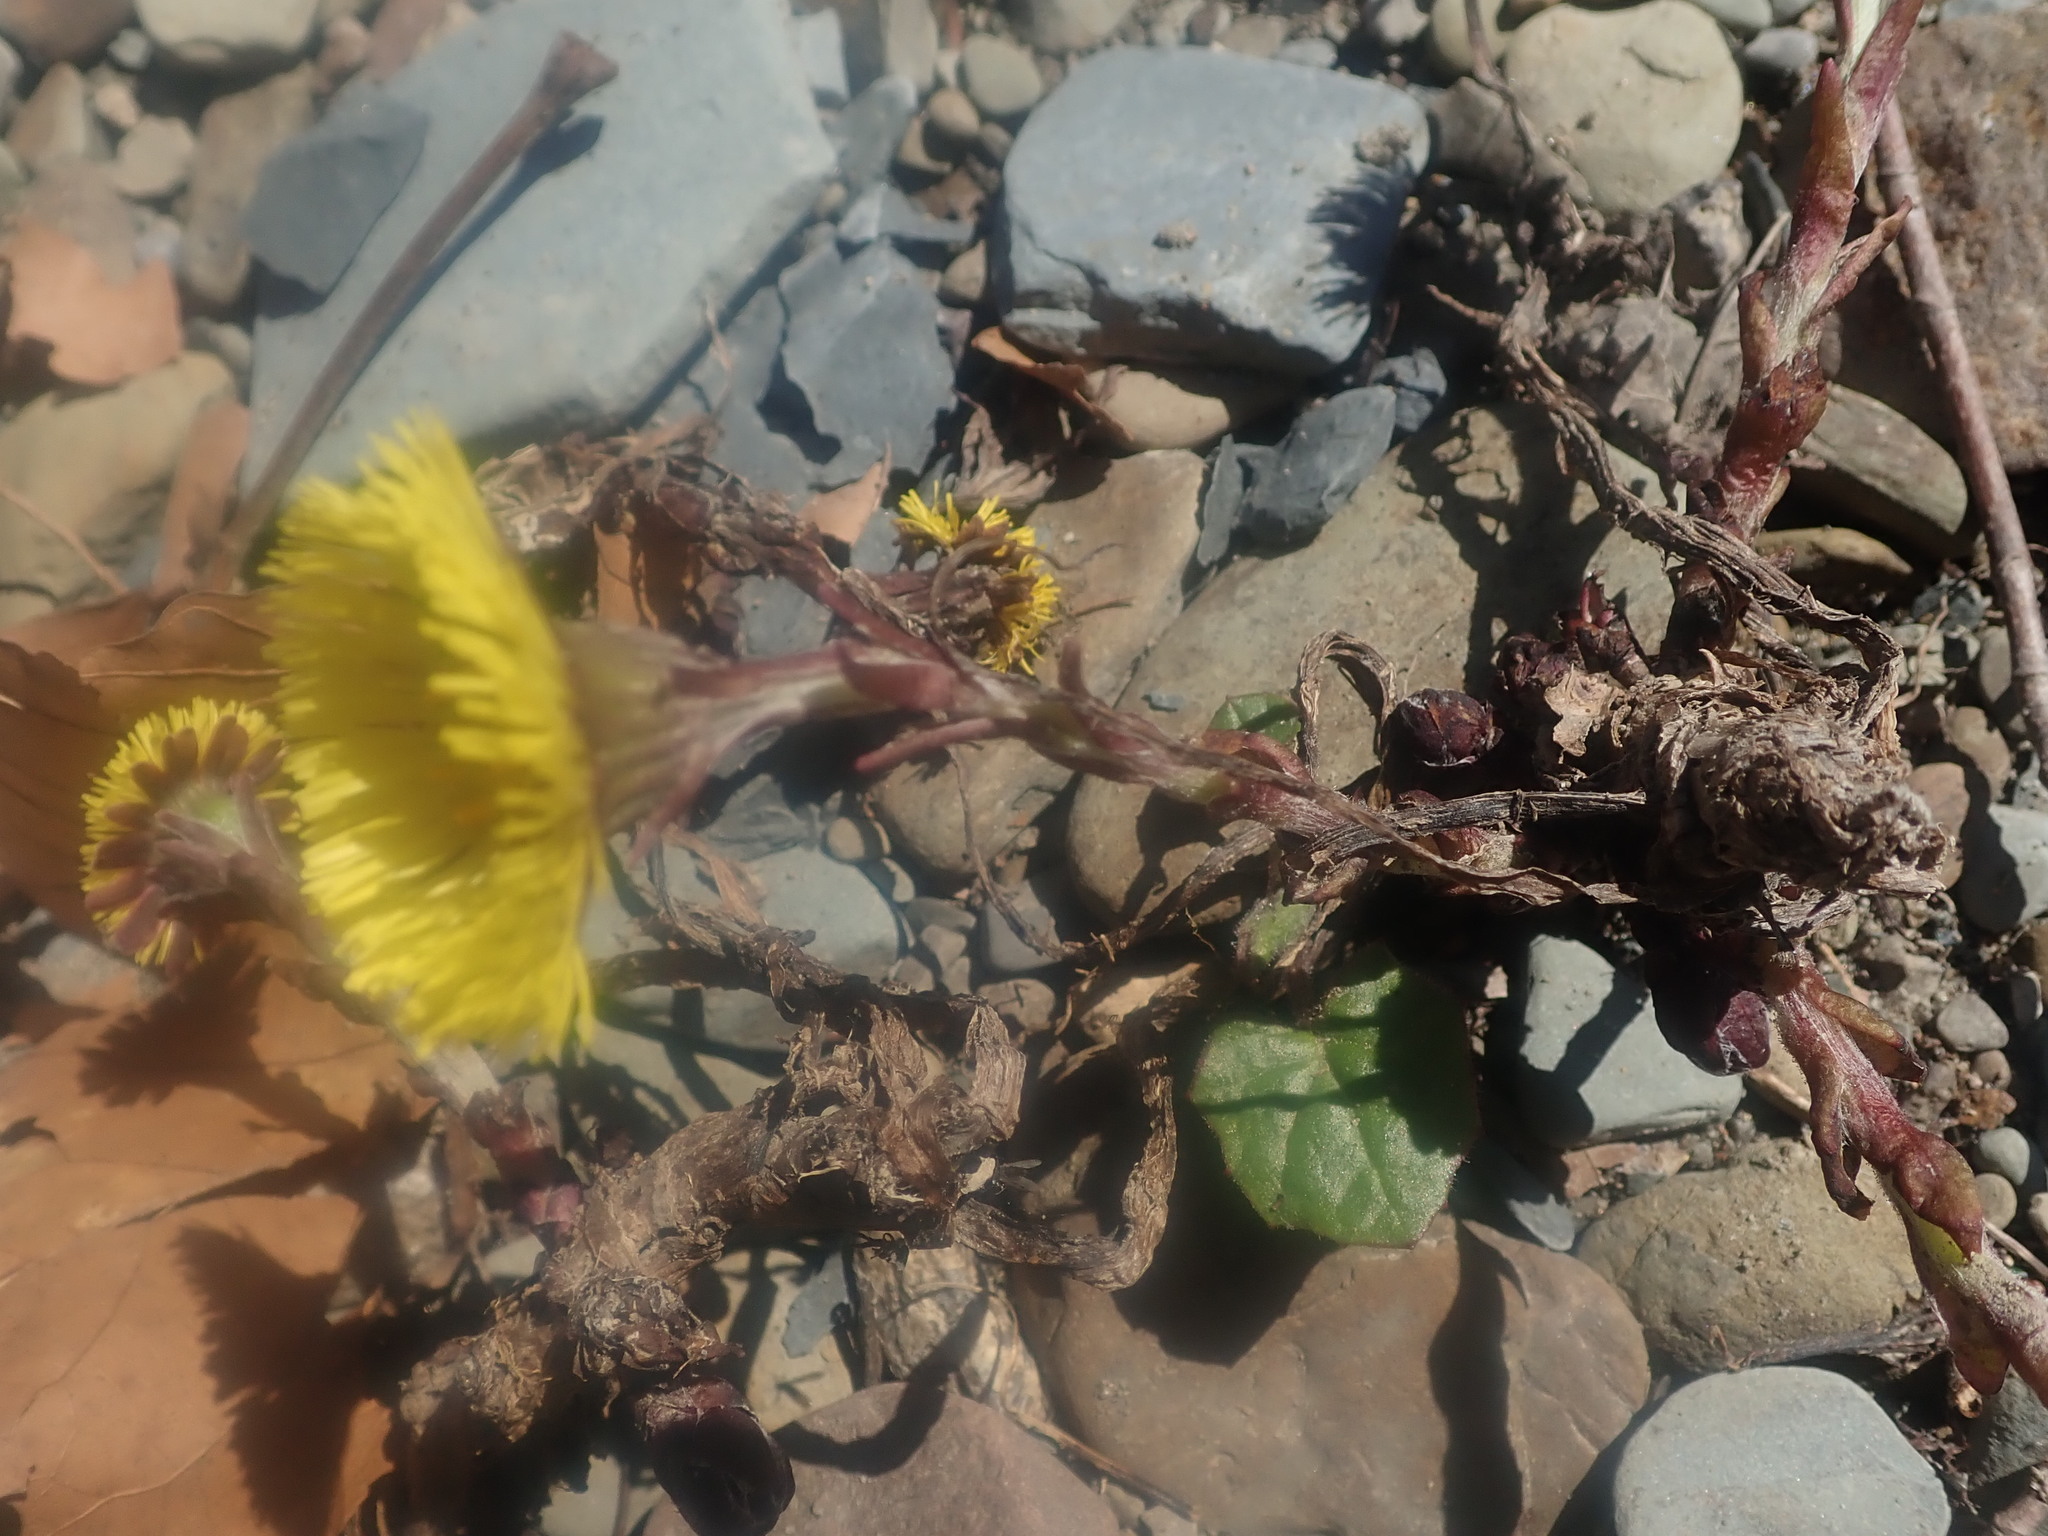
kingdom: Plantae
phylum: Tracheophyta
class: Magnoliopsida
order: Asterales
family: Asteraceae
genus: Tussilago
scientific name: Tussilago farfara
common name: Coltsfoot
